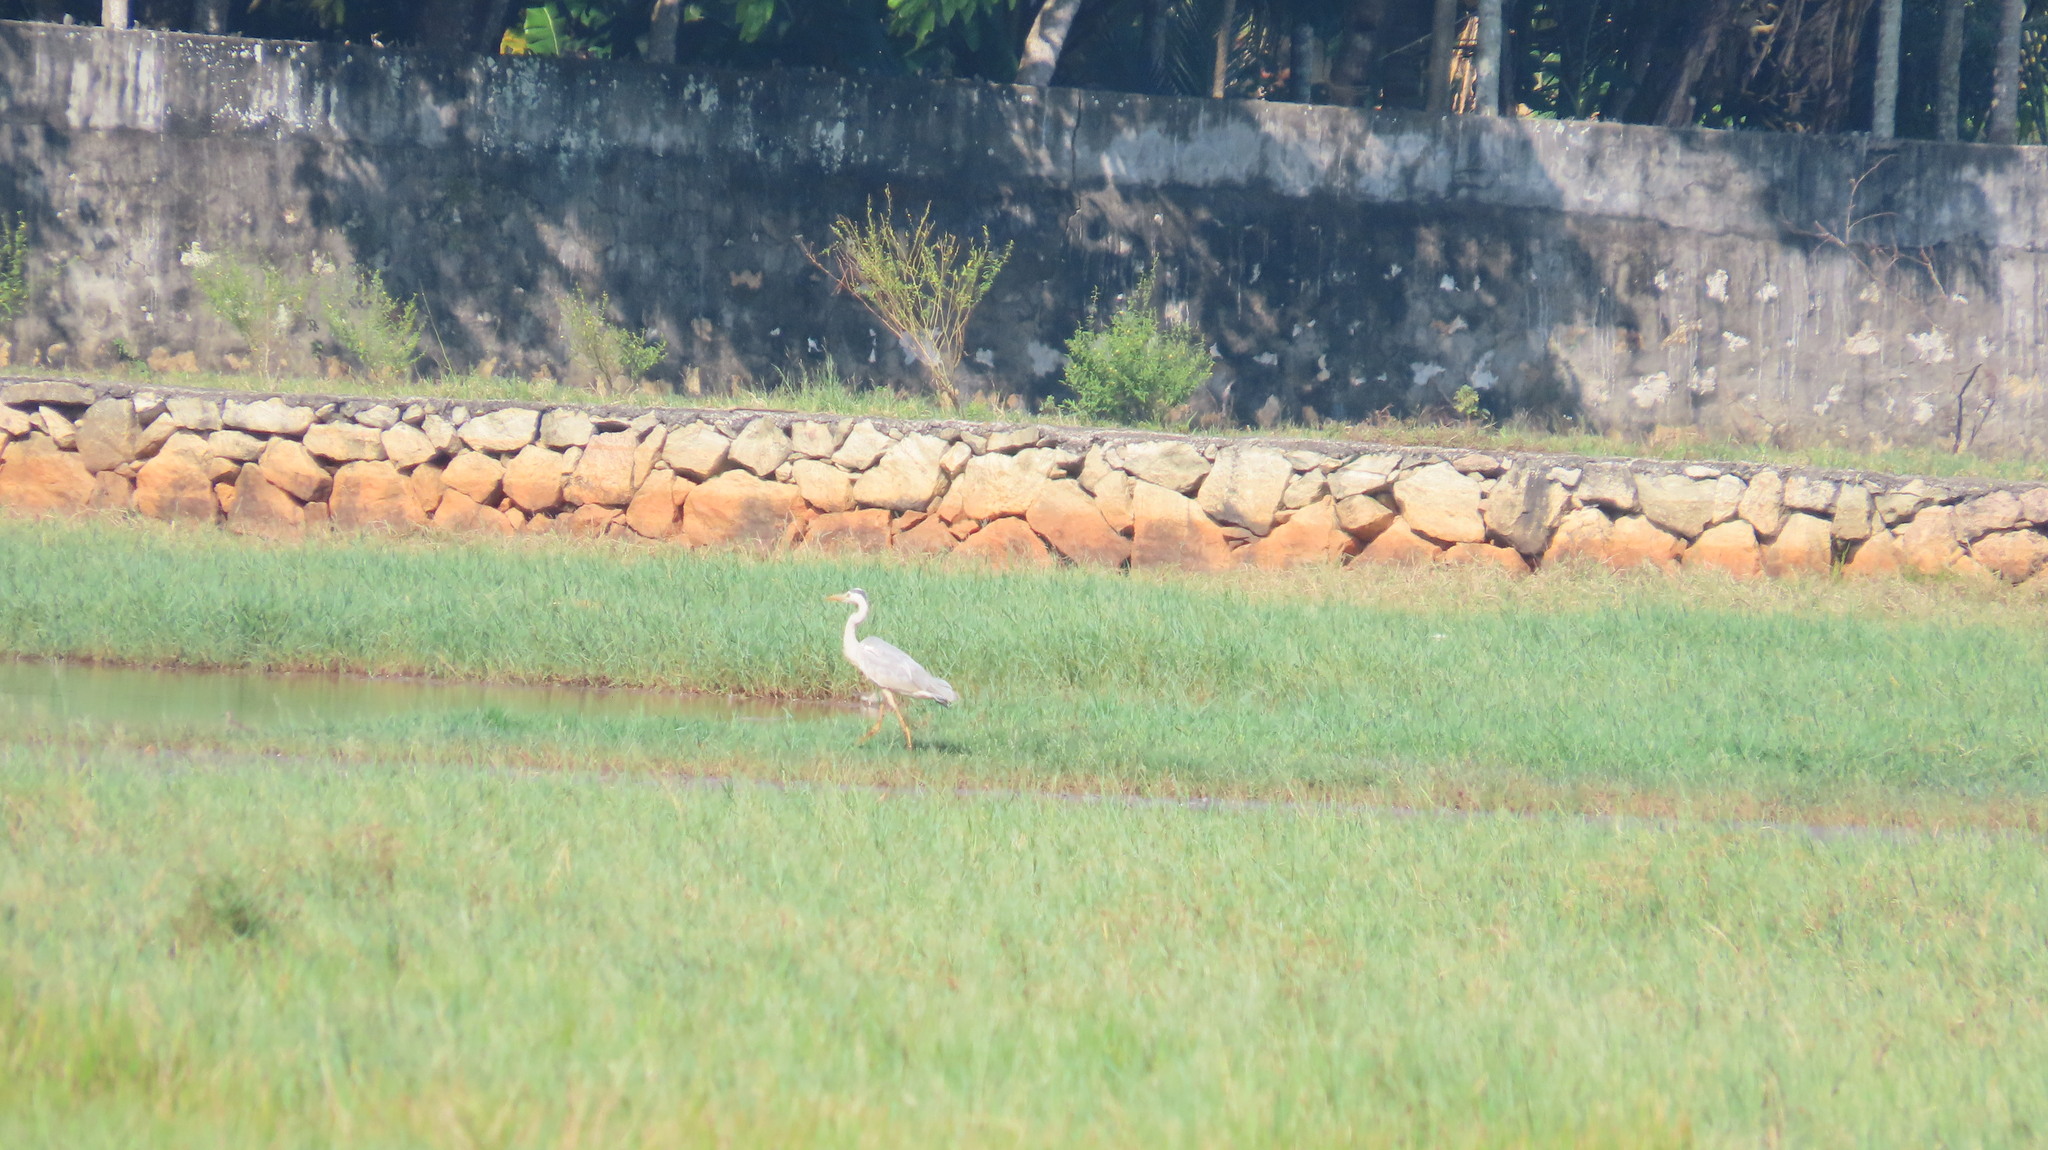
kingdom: Animalia
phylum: Chordata
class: Aves
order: Pelecaniformes
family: Ardeidae
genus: Ardea
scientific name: Ardea cinerea
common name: Grey heron
